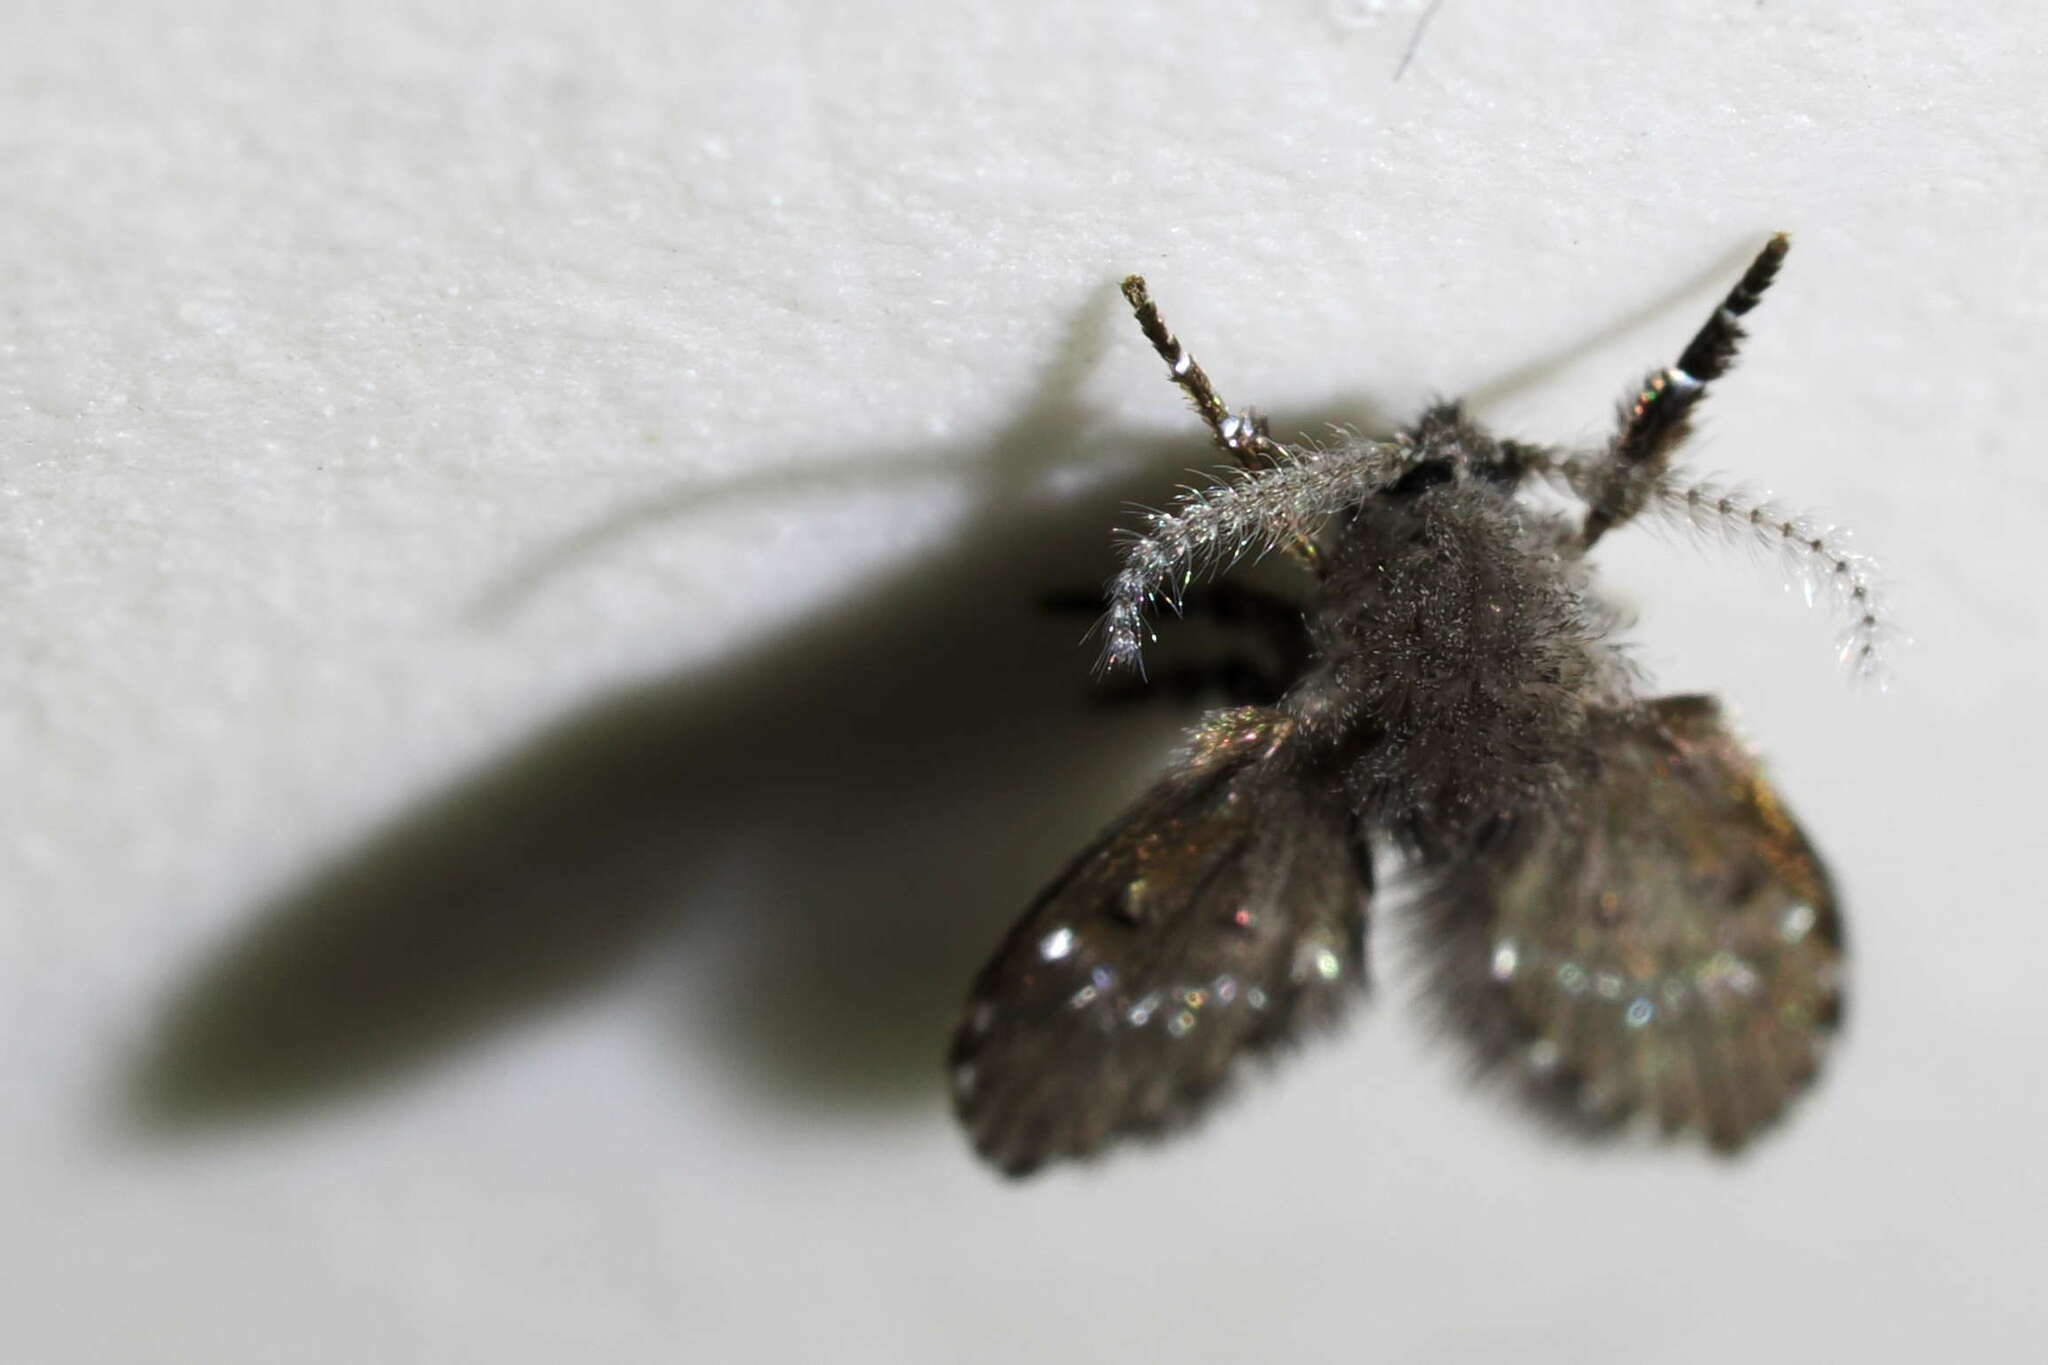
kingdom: Animalia
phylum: Arthropoda
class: Insecta
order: Diptera
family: Psychodidae
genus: Clogmia
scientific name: Clogmia albipunctatus
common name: White-spotted moth fly
